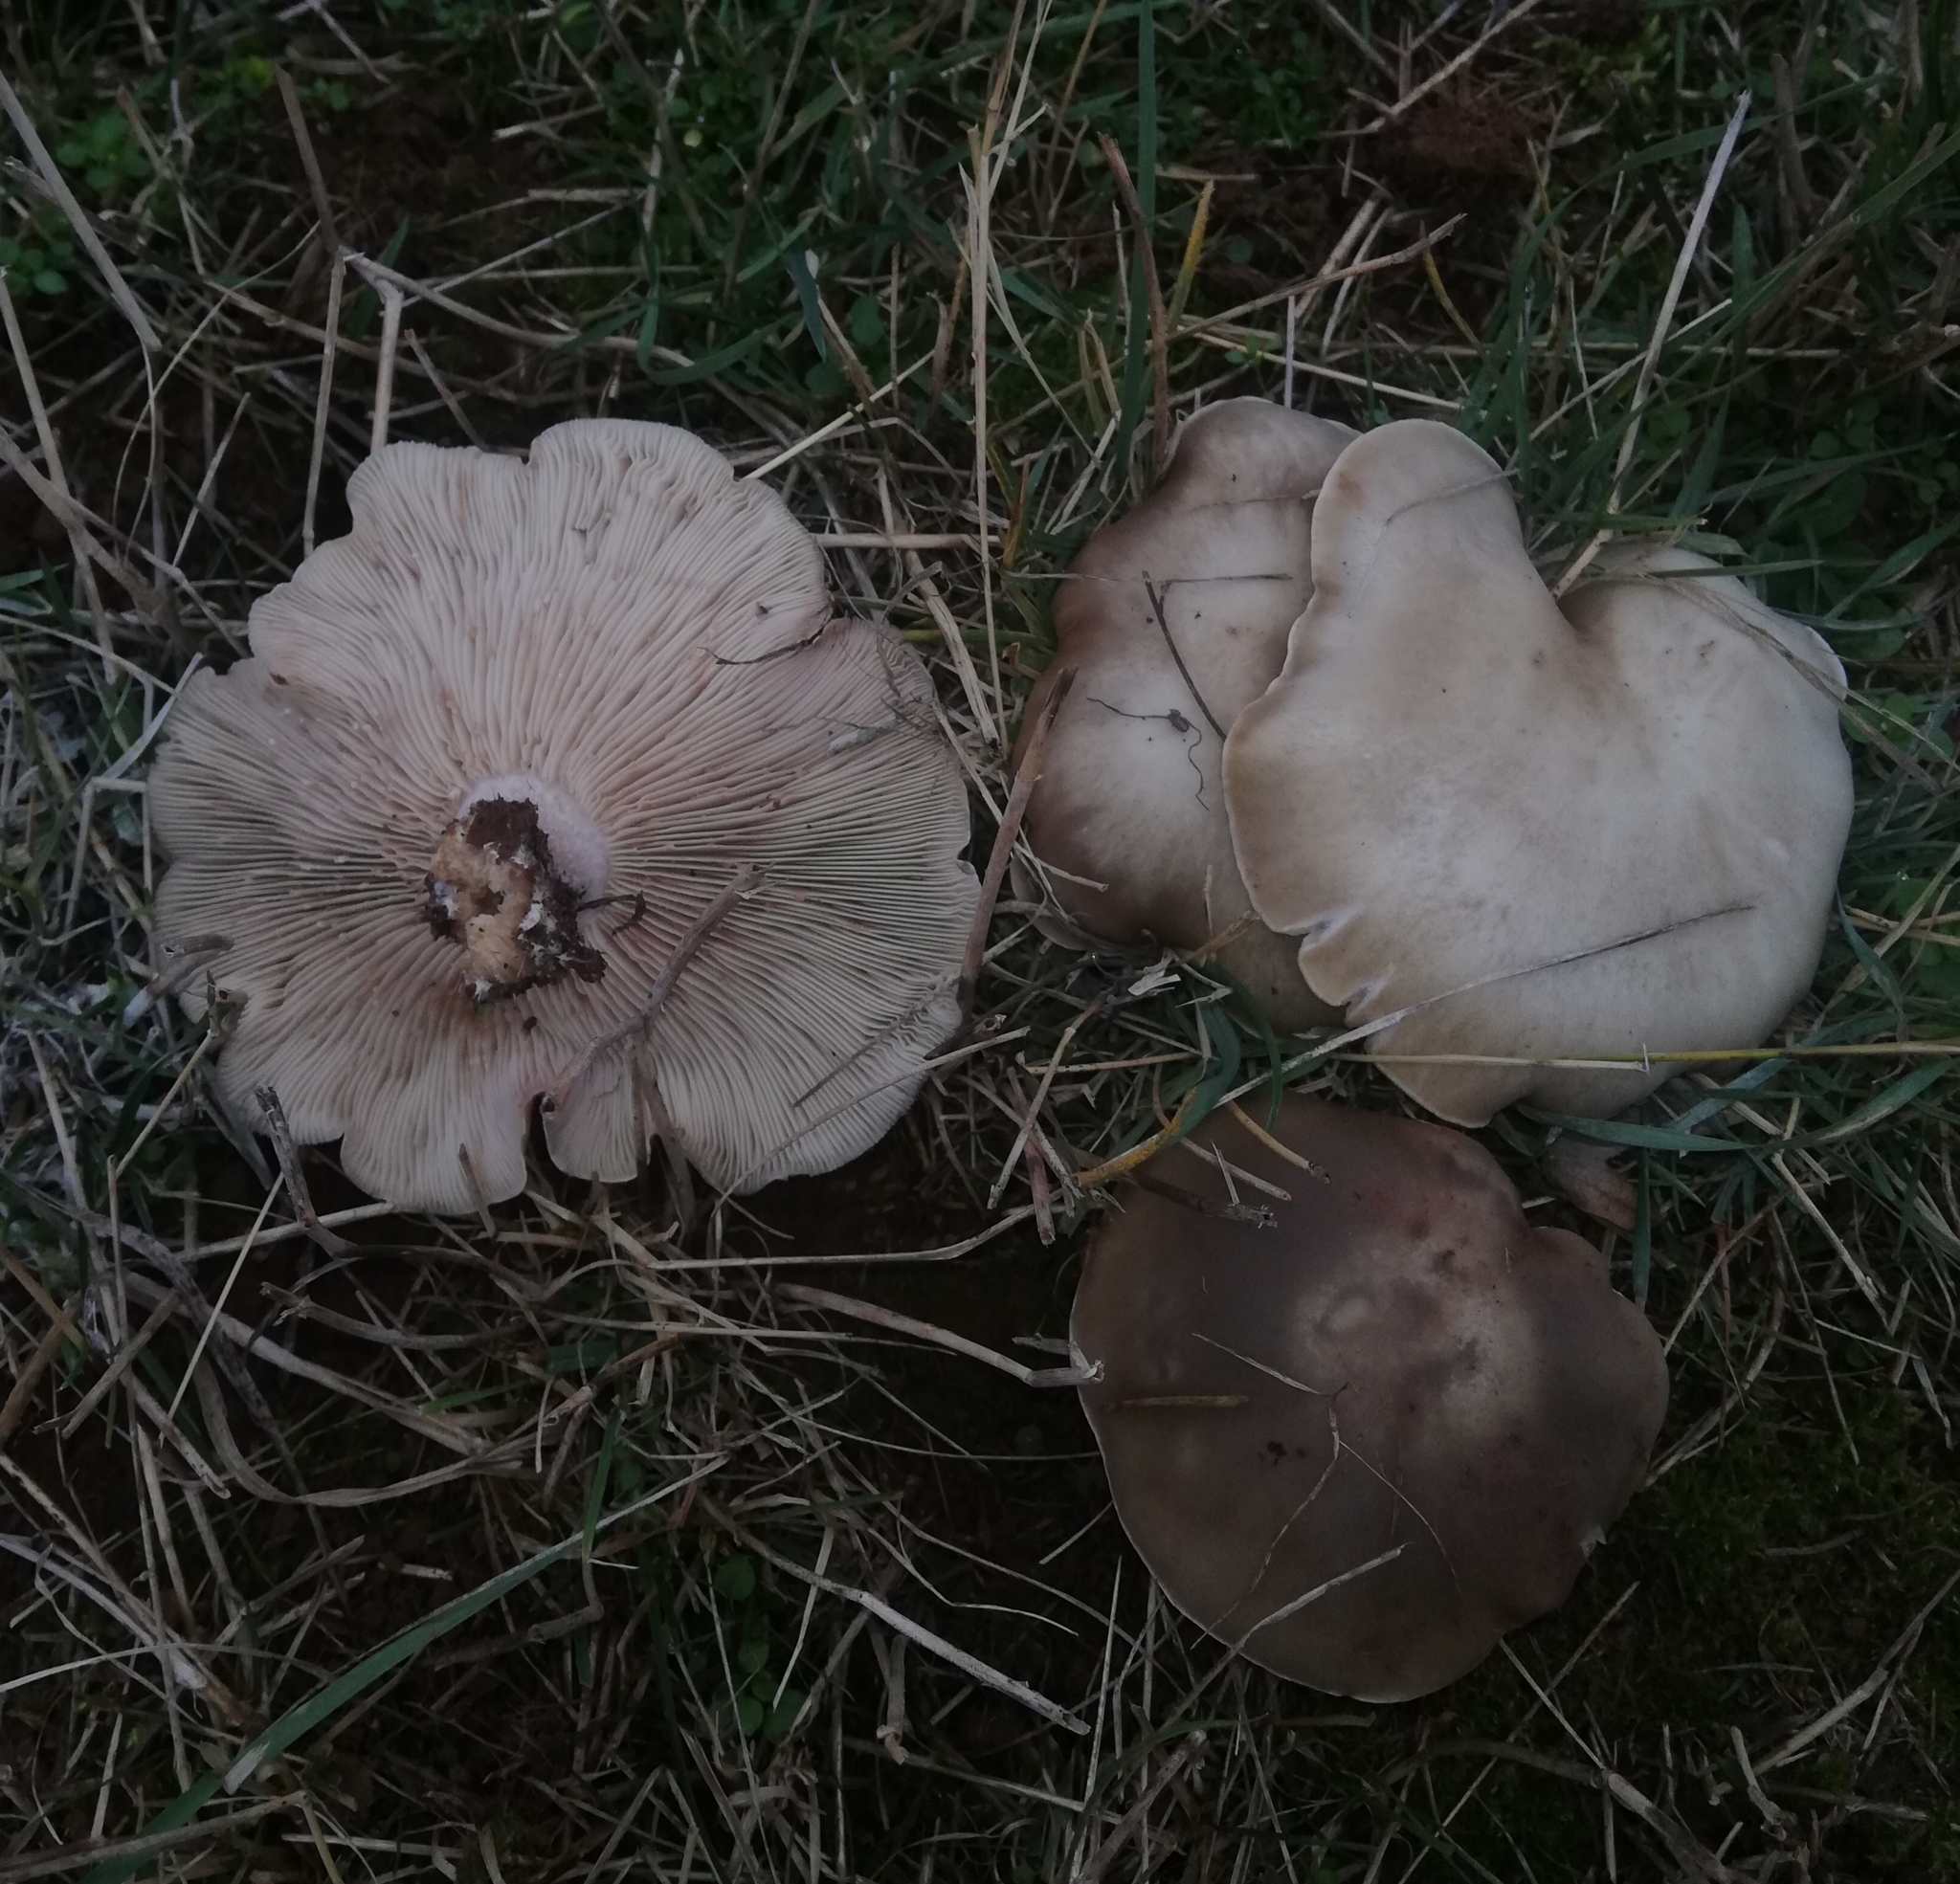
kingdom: Fungi
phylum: Basidiomycota
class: Agaricomycetes
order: Agaricales
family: Omphalotaceae
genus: Collybiopsis
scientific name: Collybiopsis peronata
